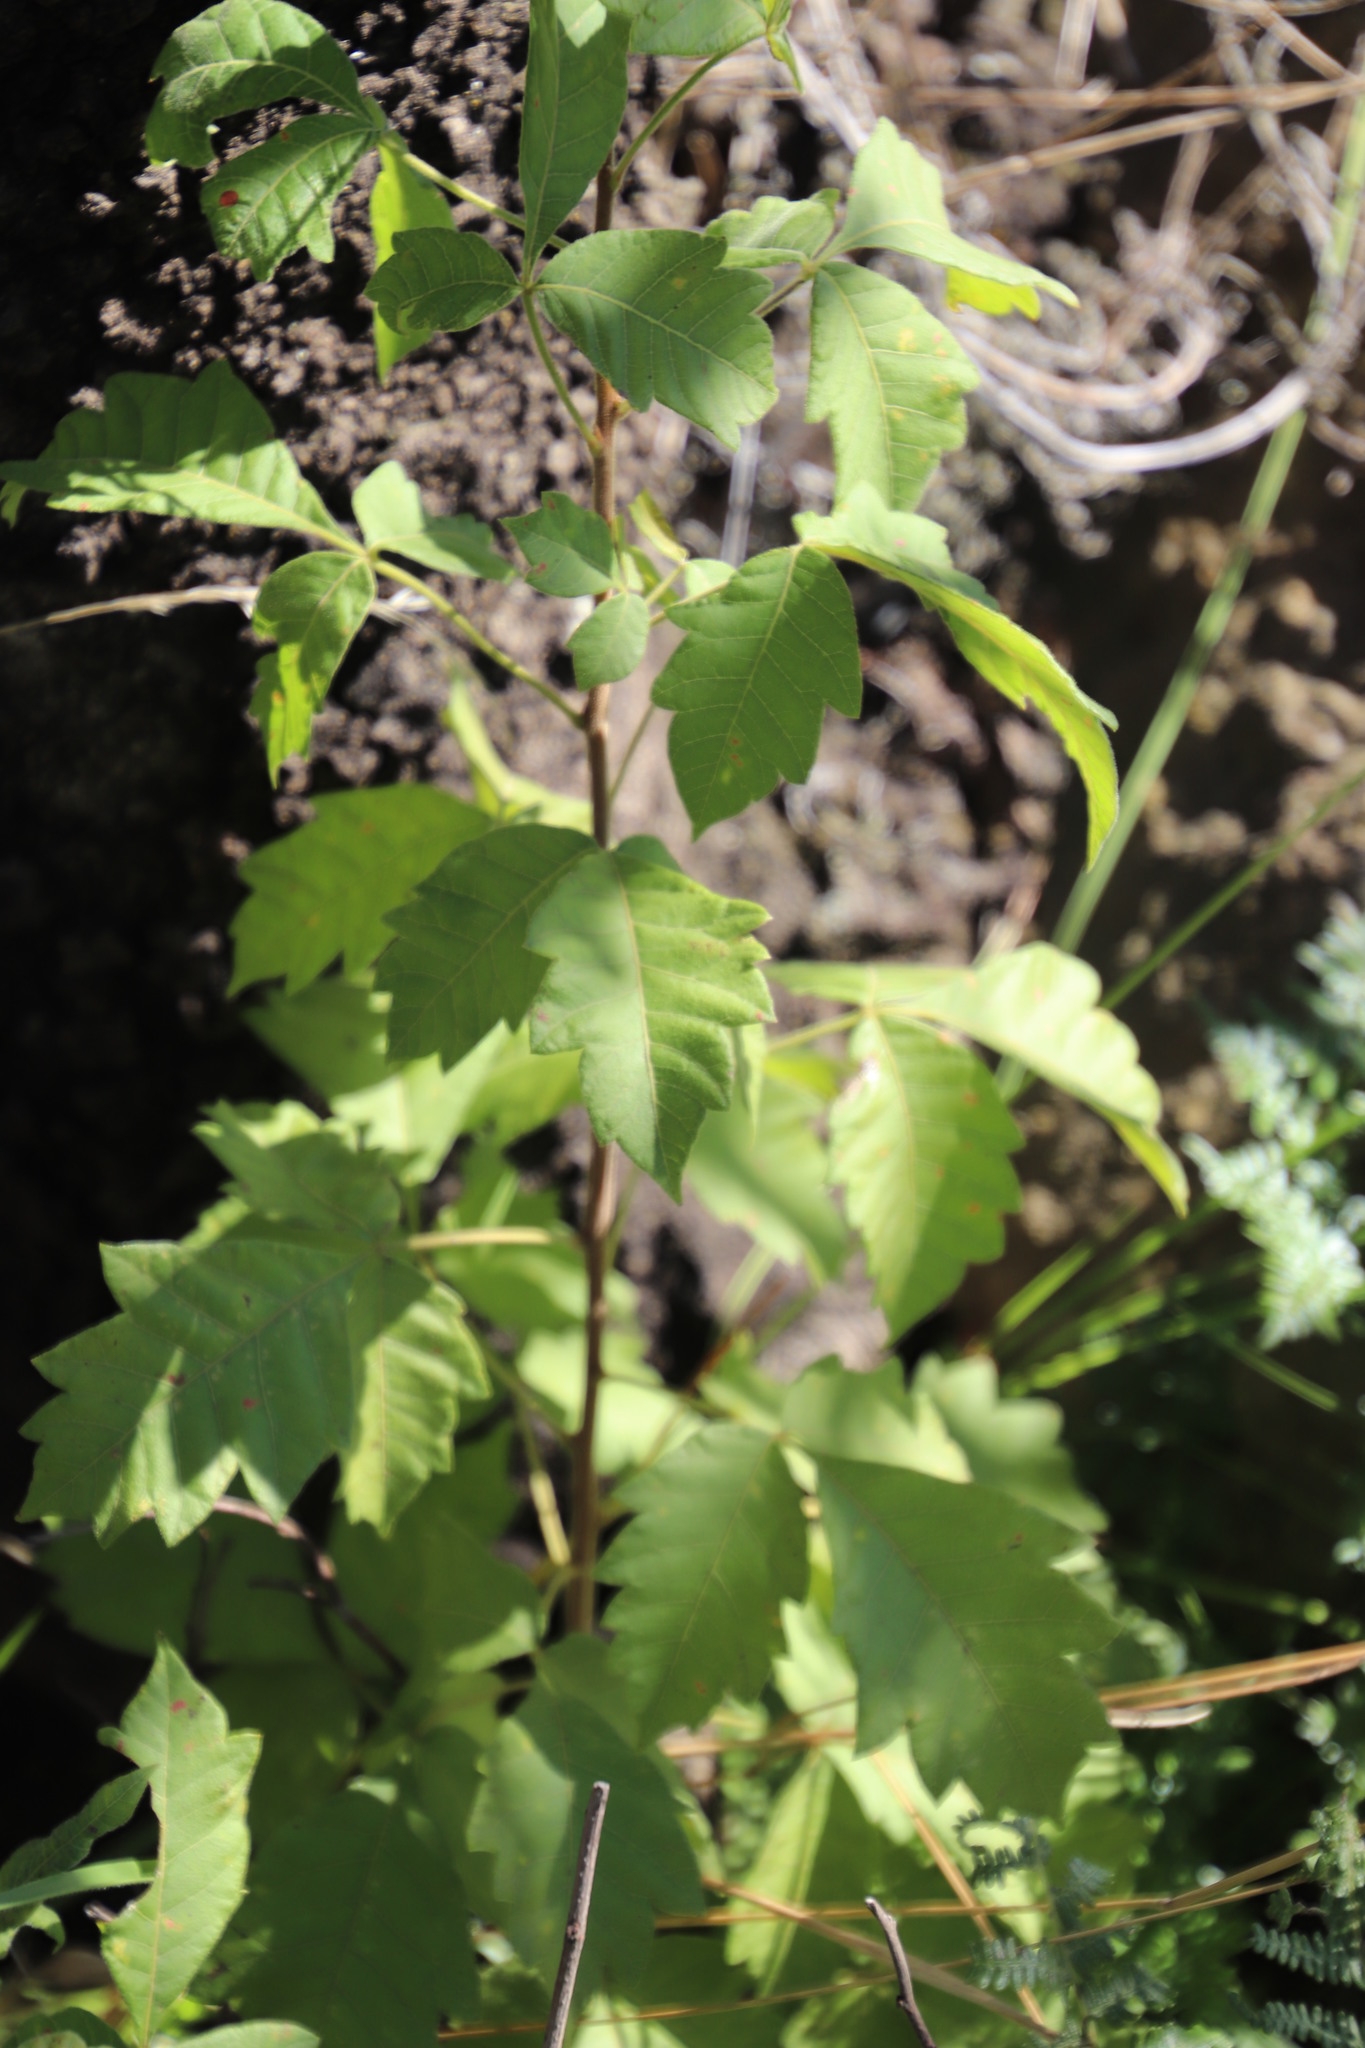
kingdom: Plantae
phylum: Tracheophyta
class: Magnoliopsida
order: Ranunculales
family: Ranunculaceae
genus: Clematis
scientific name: Clematis hirsuta
